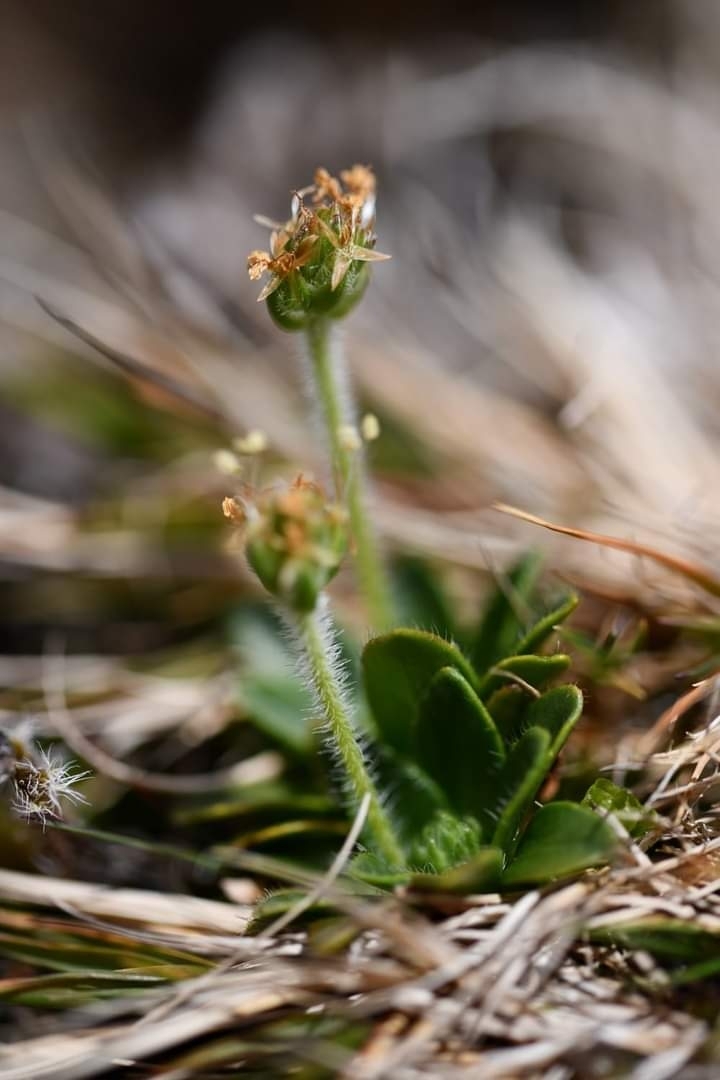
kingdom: Plantae
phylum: Tracheophyta
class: Magnoliopsida
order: Lamiales
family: Plantaginaceae
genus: Plantago
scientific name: Plantago pentasperma
